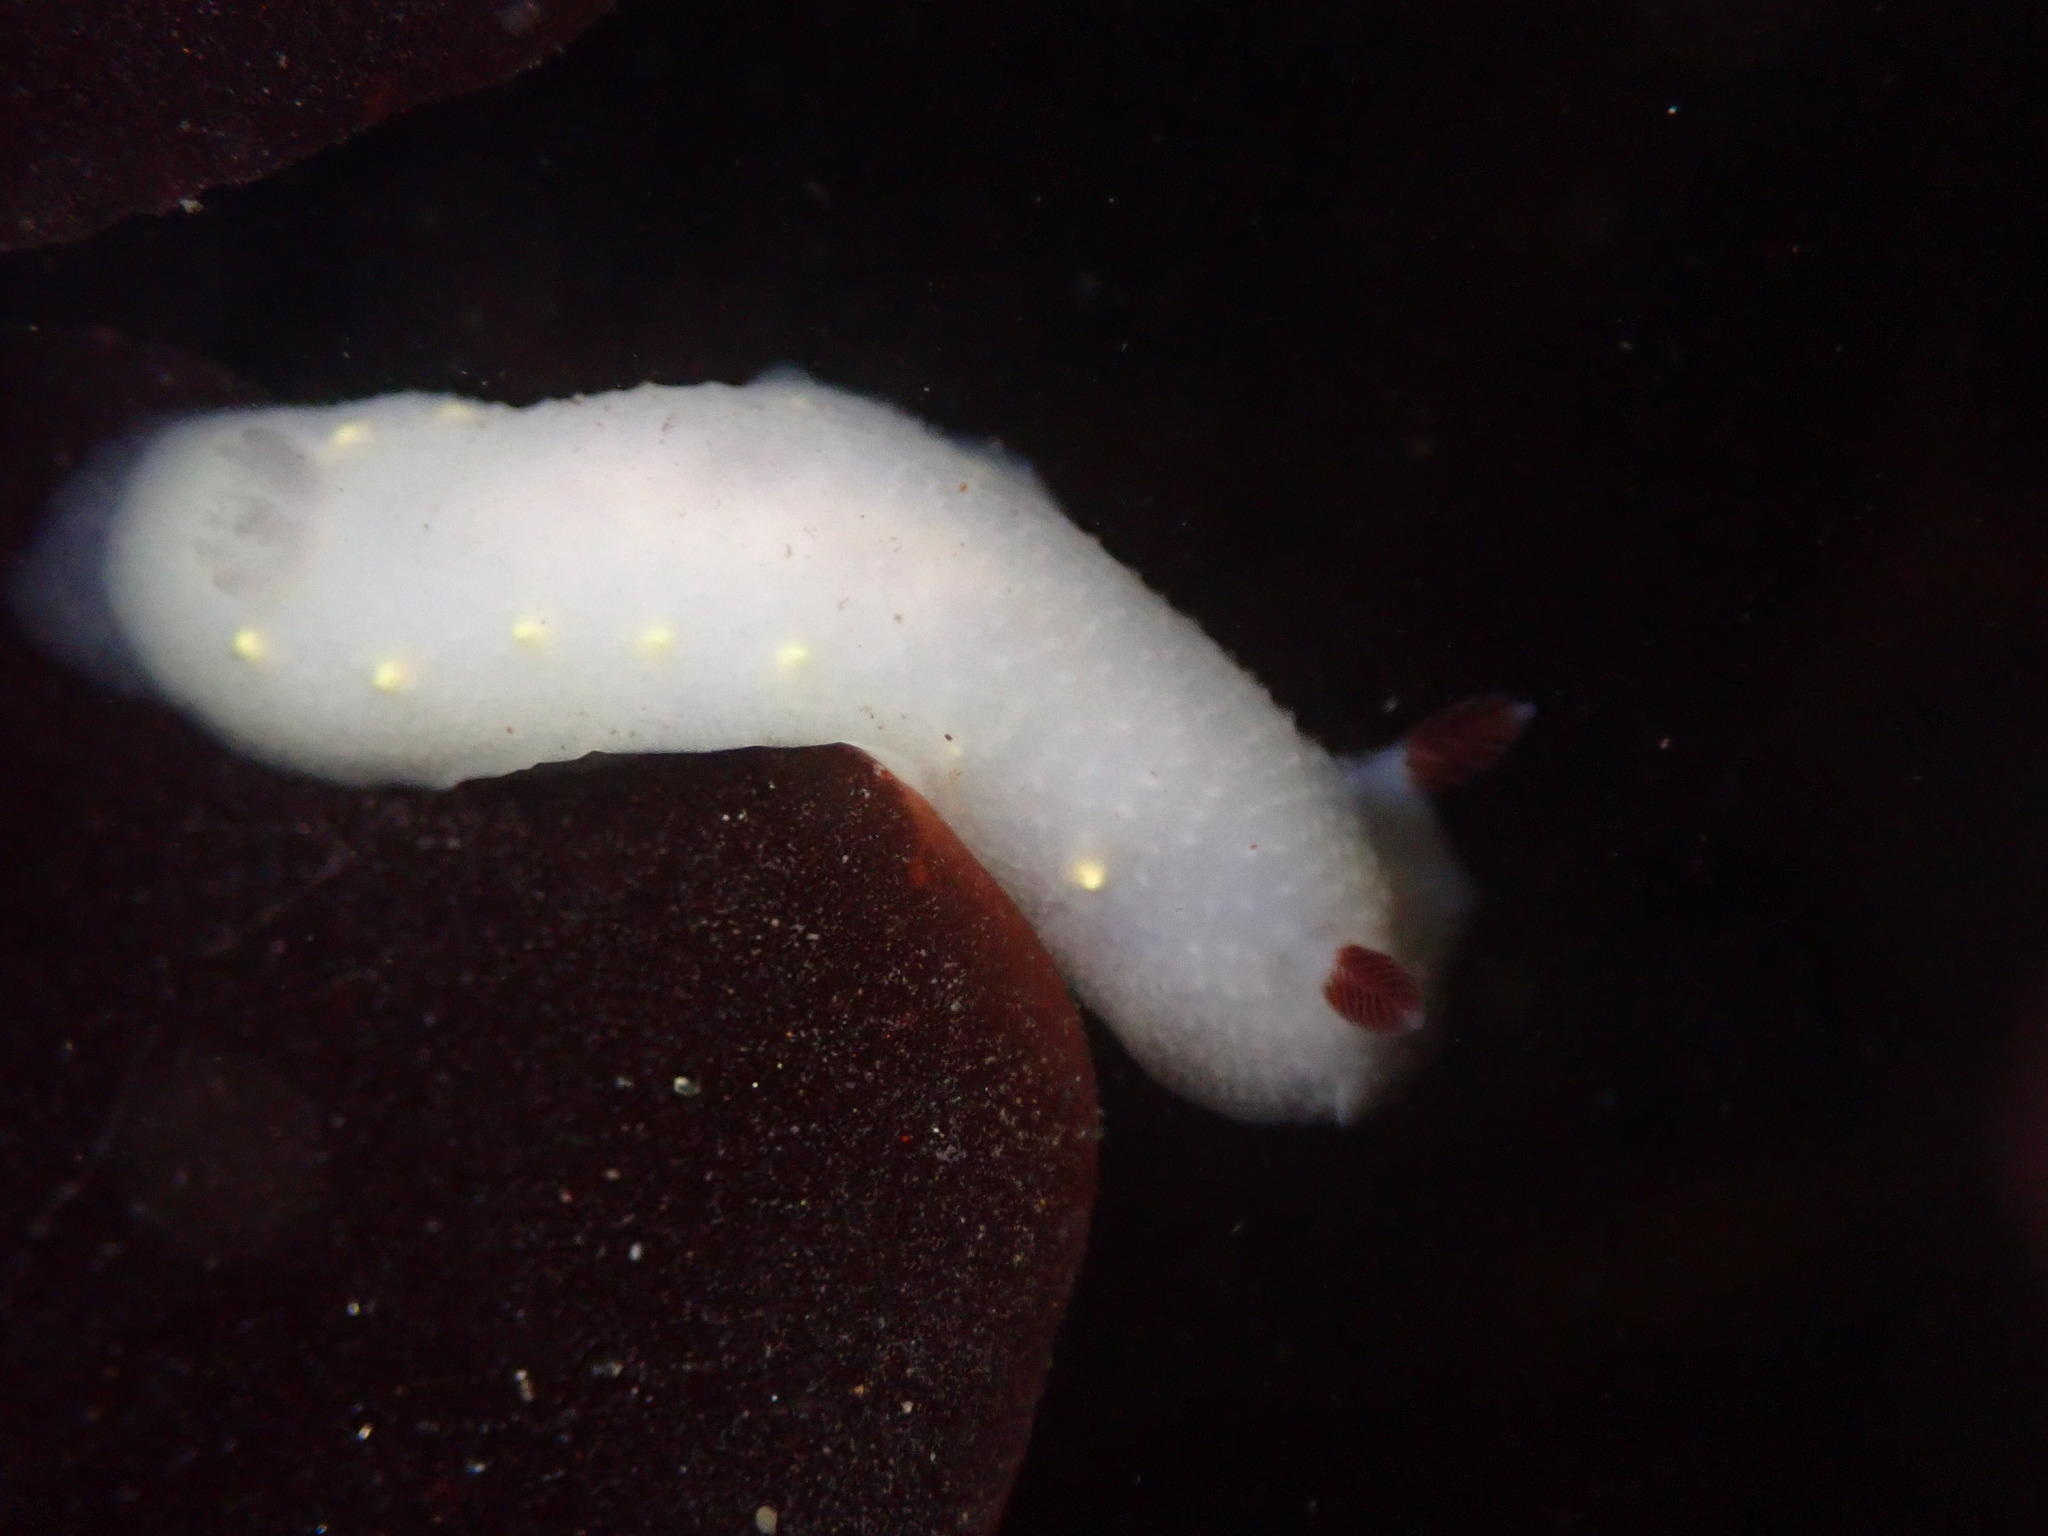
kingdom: Animalia
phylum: Mollusca
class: Gastropoda
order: Nudibranchia
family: Cadlinidae
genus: Cadlina
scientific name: Cadlina flavomaculata
